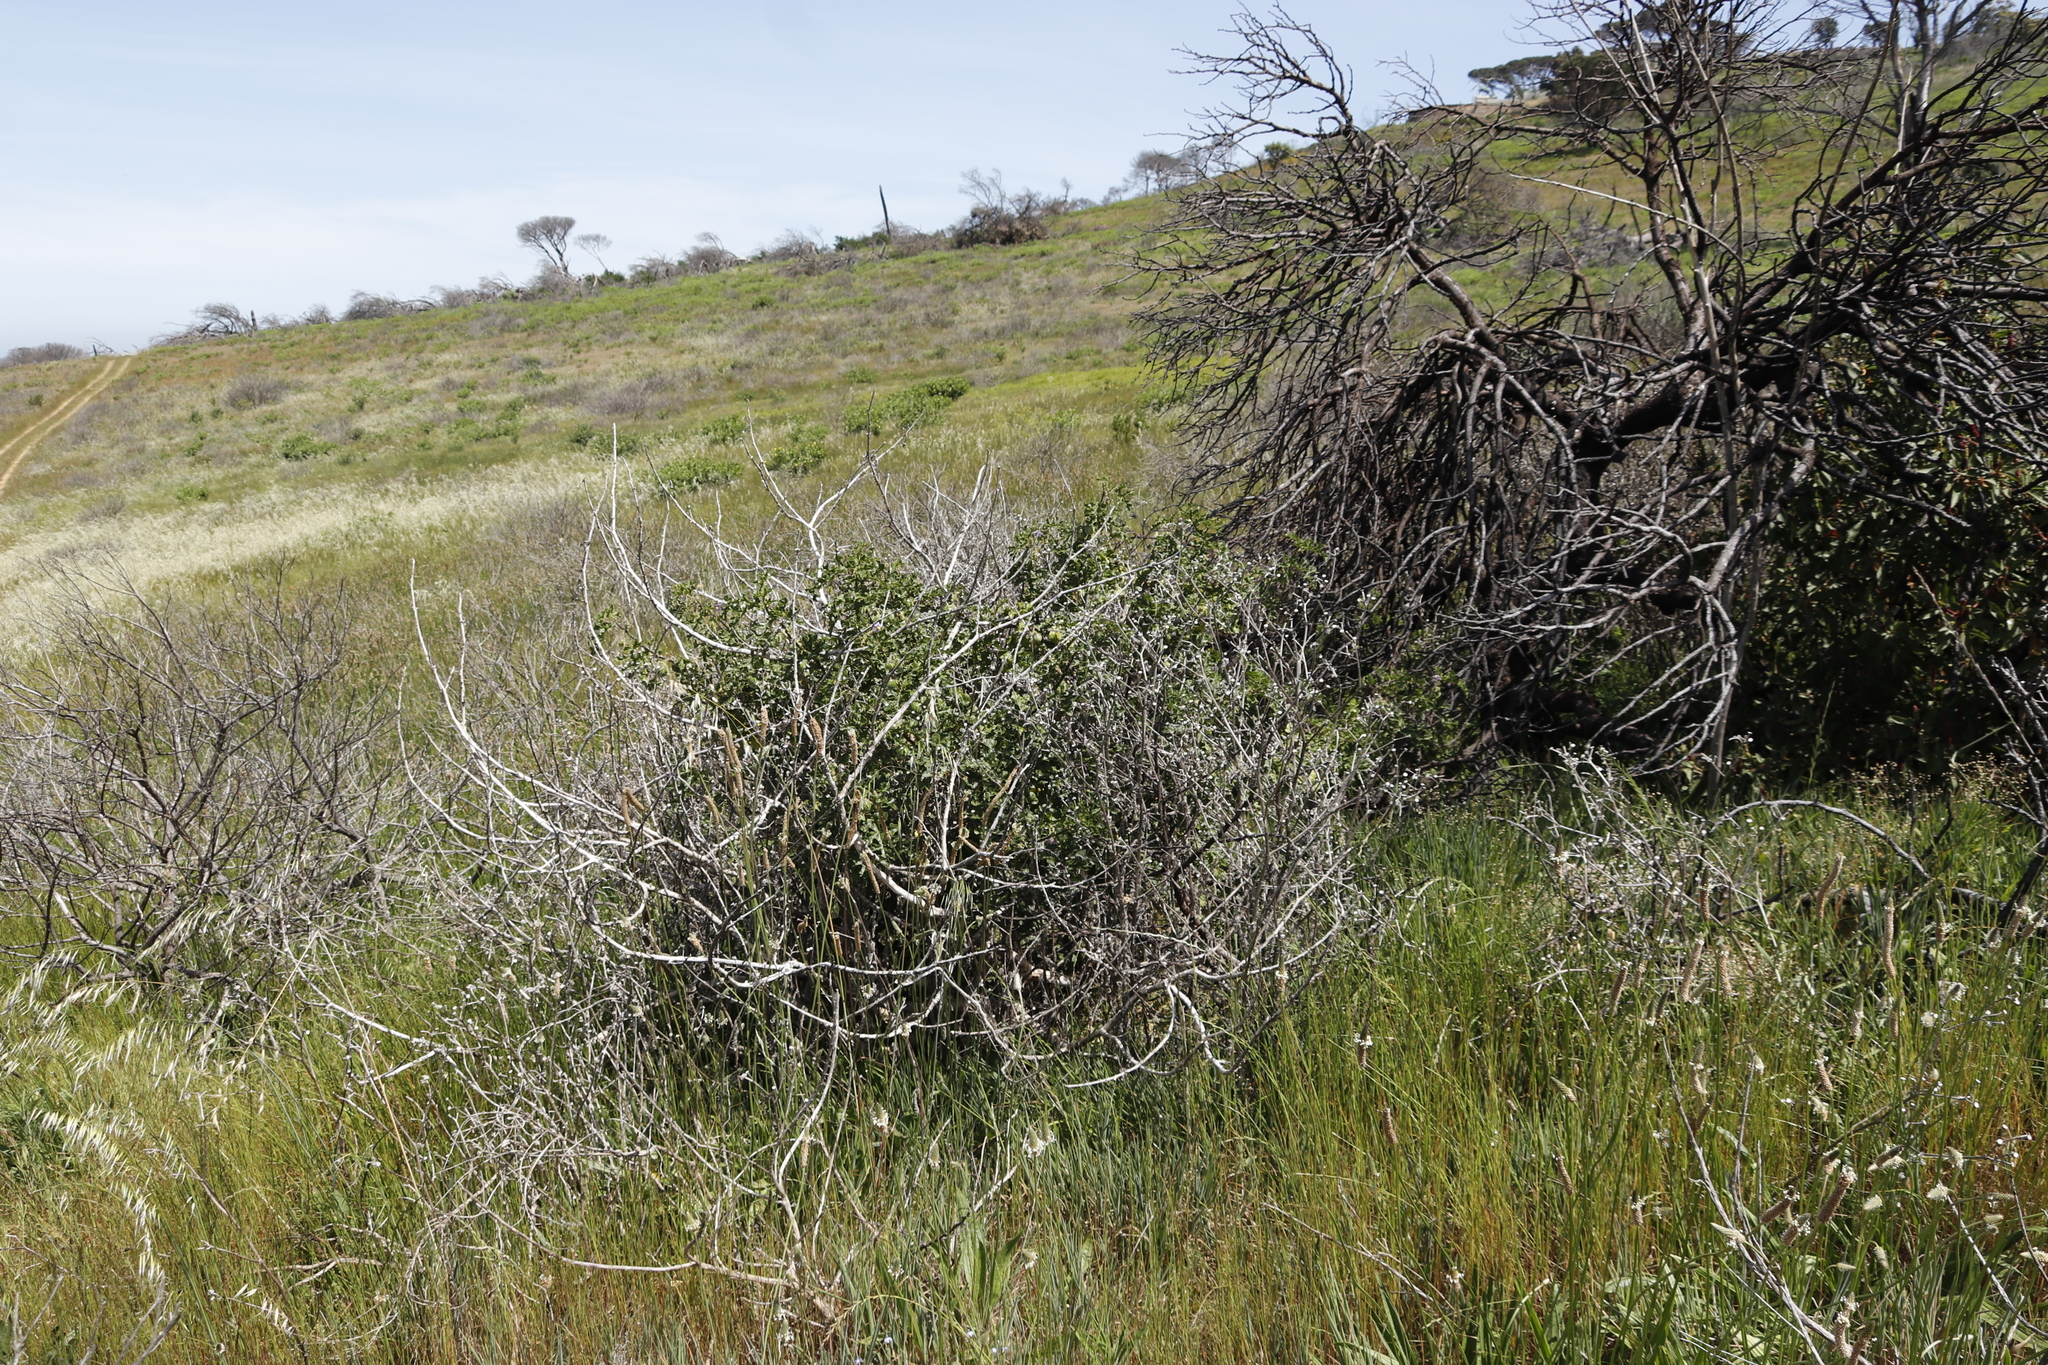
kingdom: Plantae
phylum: Tracheophyta
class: Magnoliopsida
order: Solanales
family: Solanaceae
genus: Solanum
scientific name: Solanum linnaeanum
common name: Nightshade
